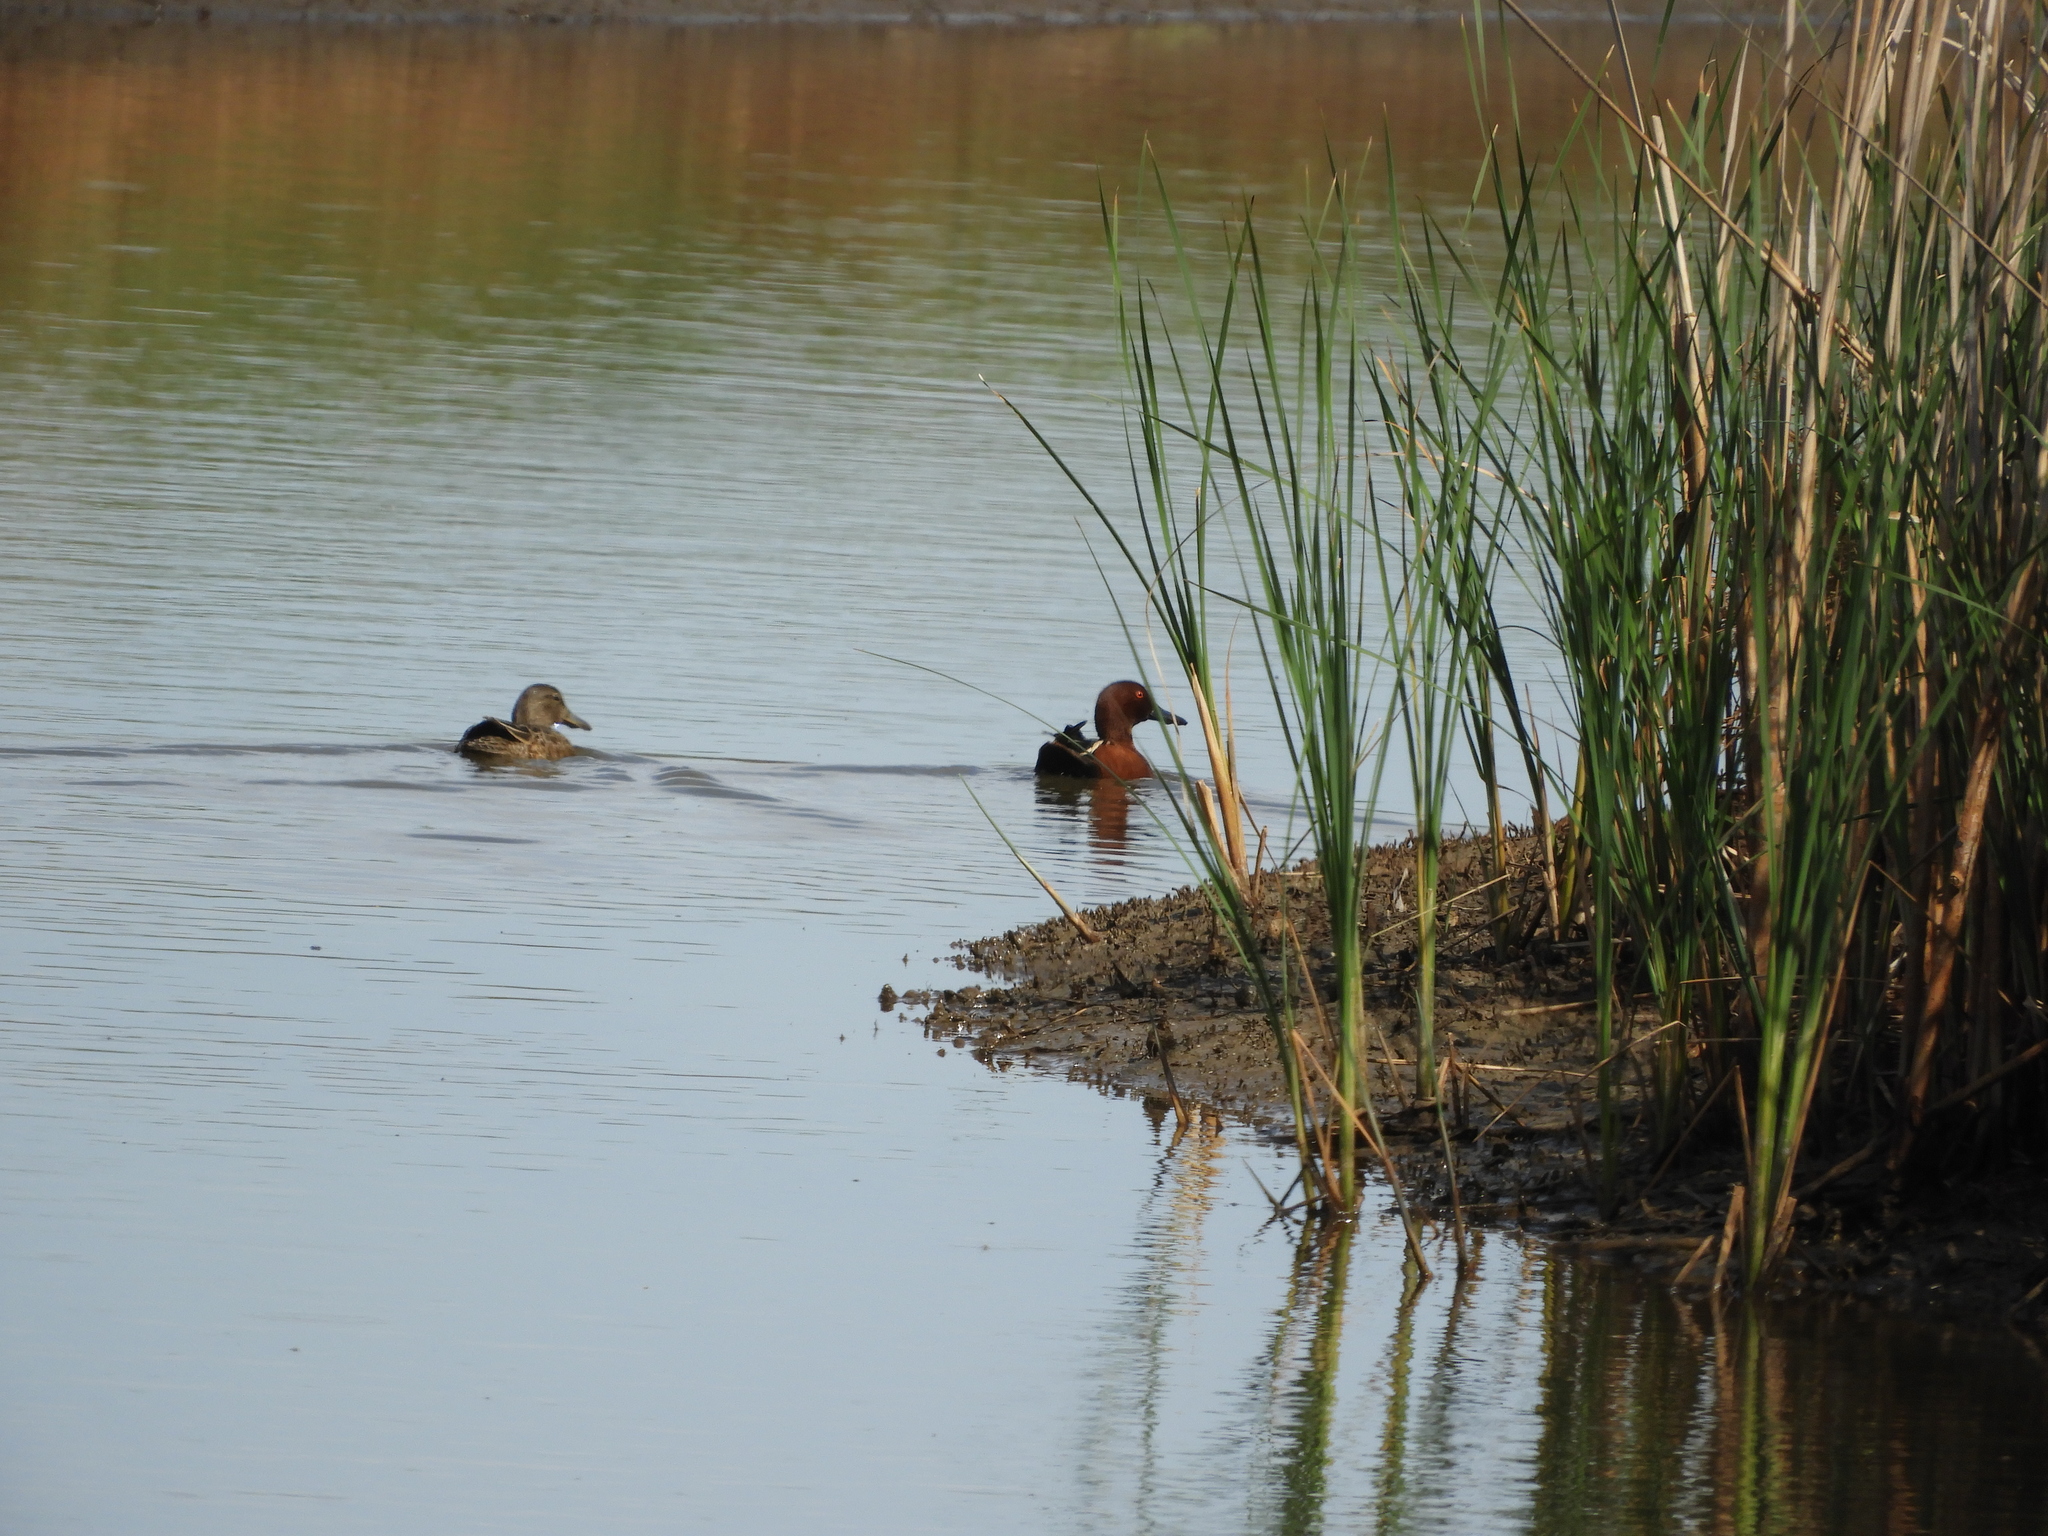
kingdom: Animalia
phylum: Chordata
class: Aves
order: Anseriformes
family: Anatidae
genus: Spatula
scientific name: Spatula cyanoptera
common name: Cinnamon teal
